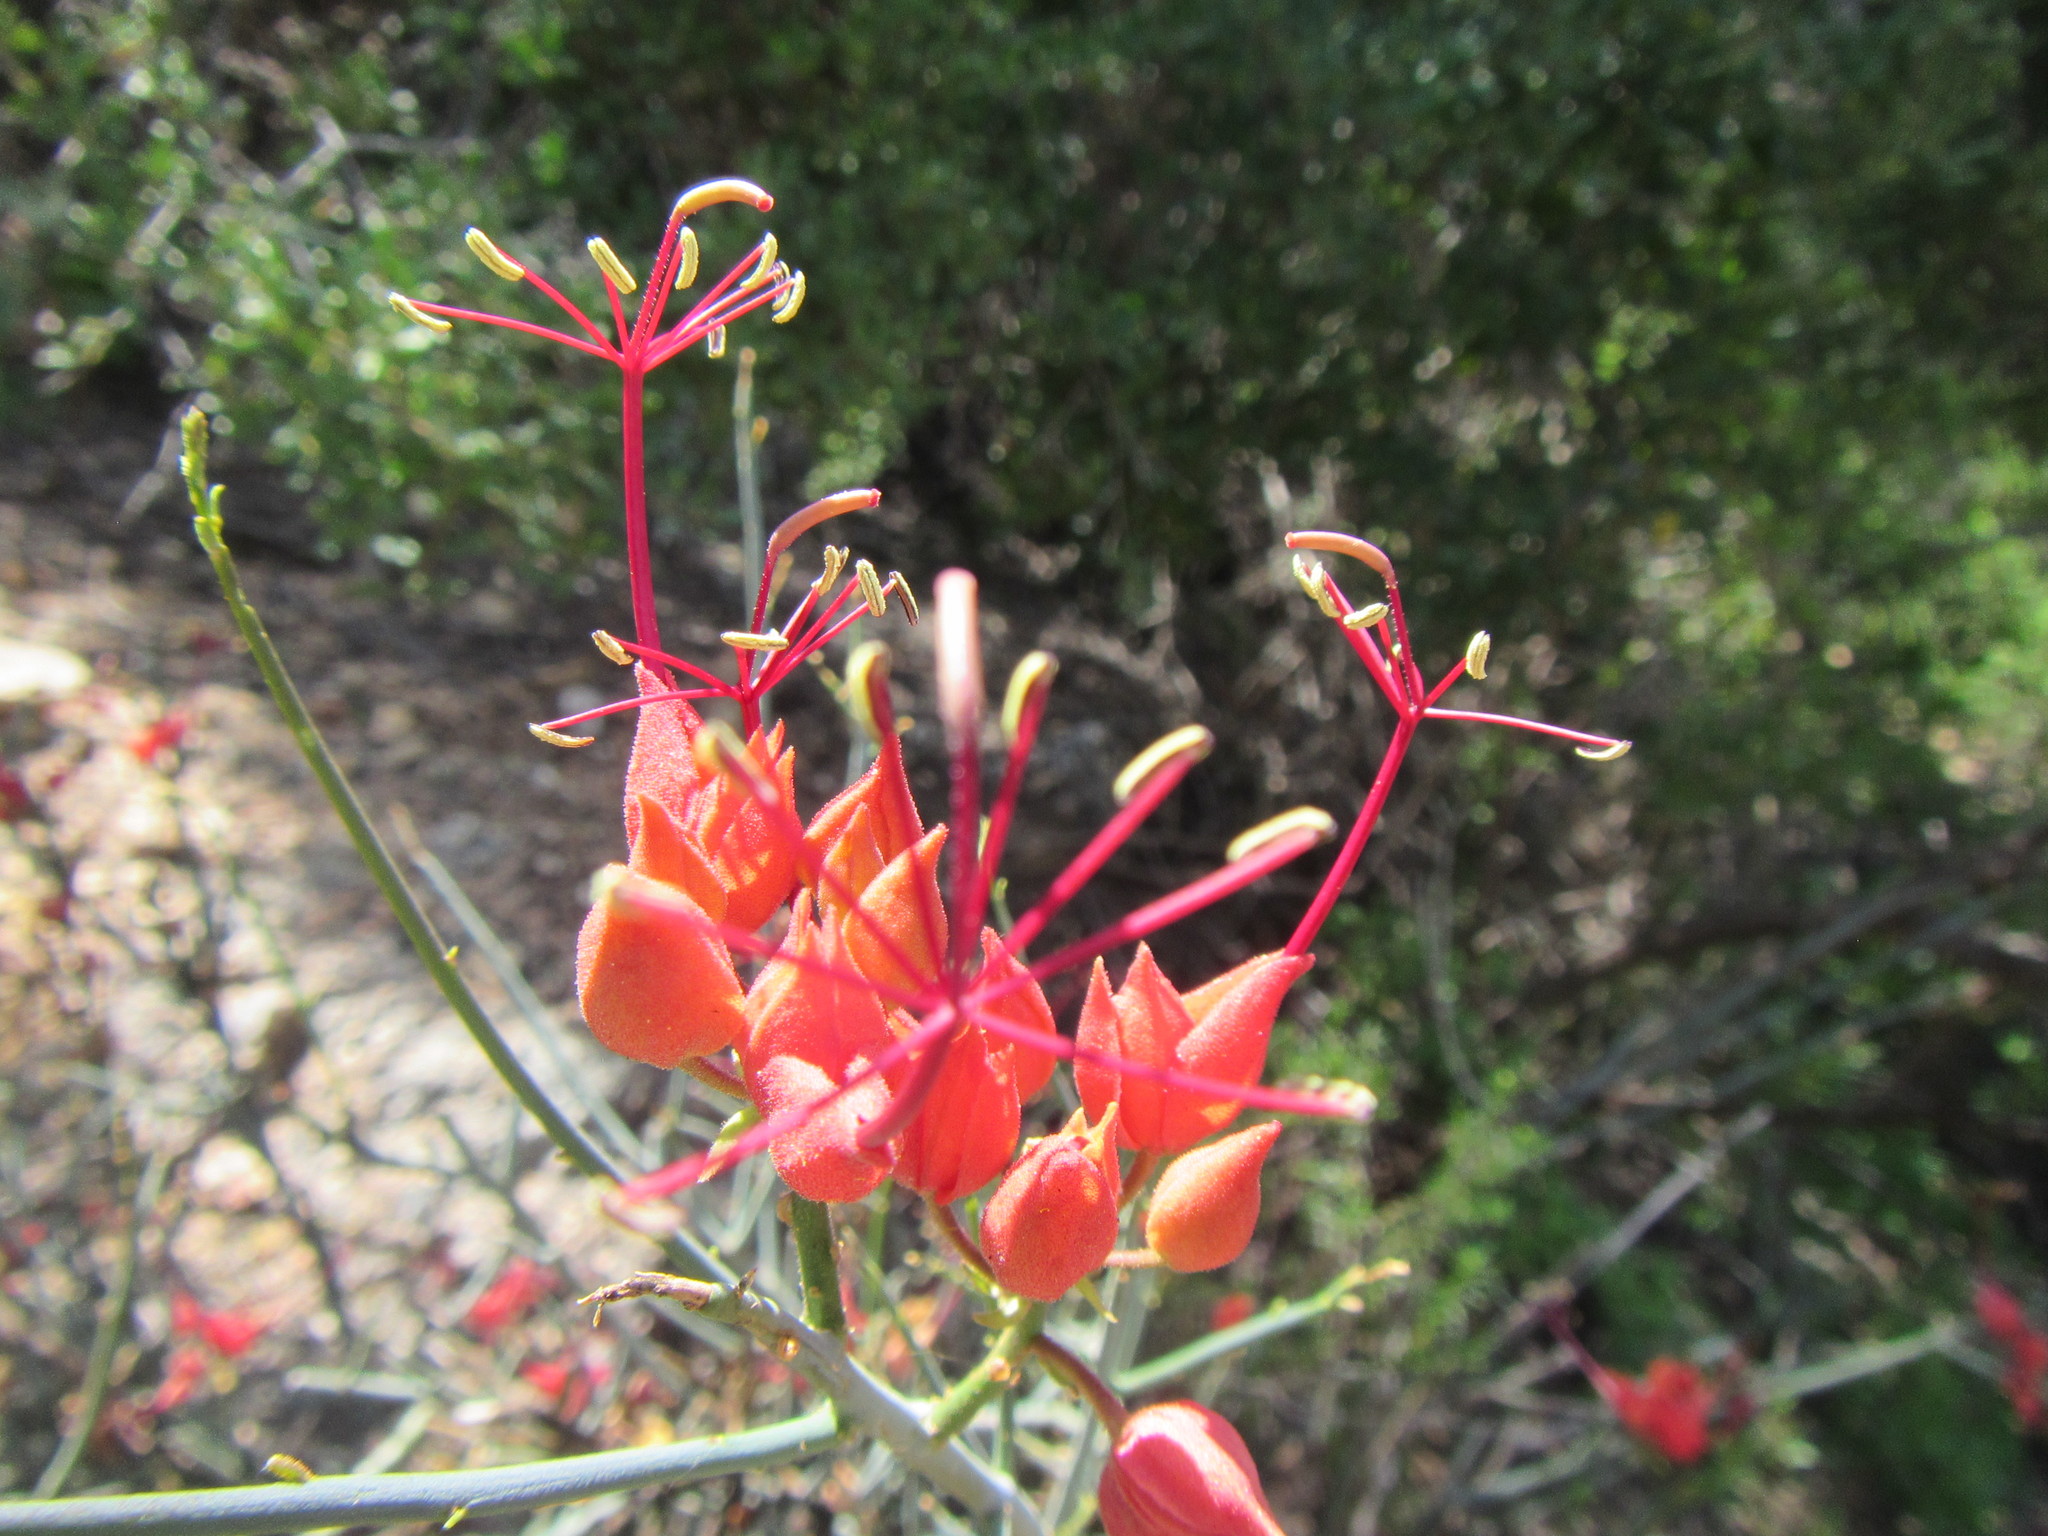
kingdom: Plantae
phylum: Tracheophyta
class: Magnoliopsida
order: Brassicales
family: Capparaceae
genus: Cadaba
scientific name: Cadaba aphylla
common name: Black storm
